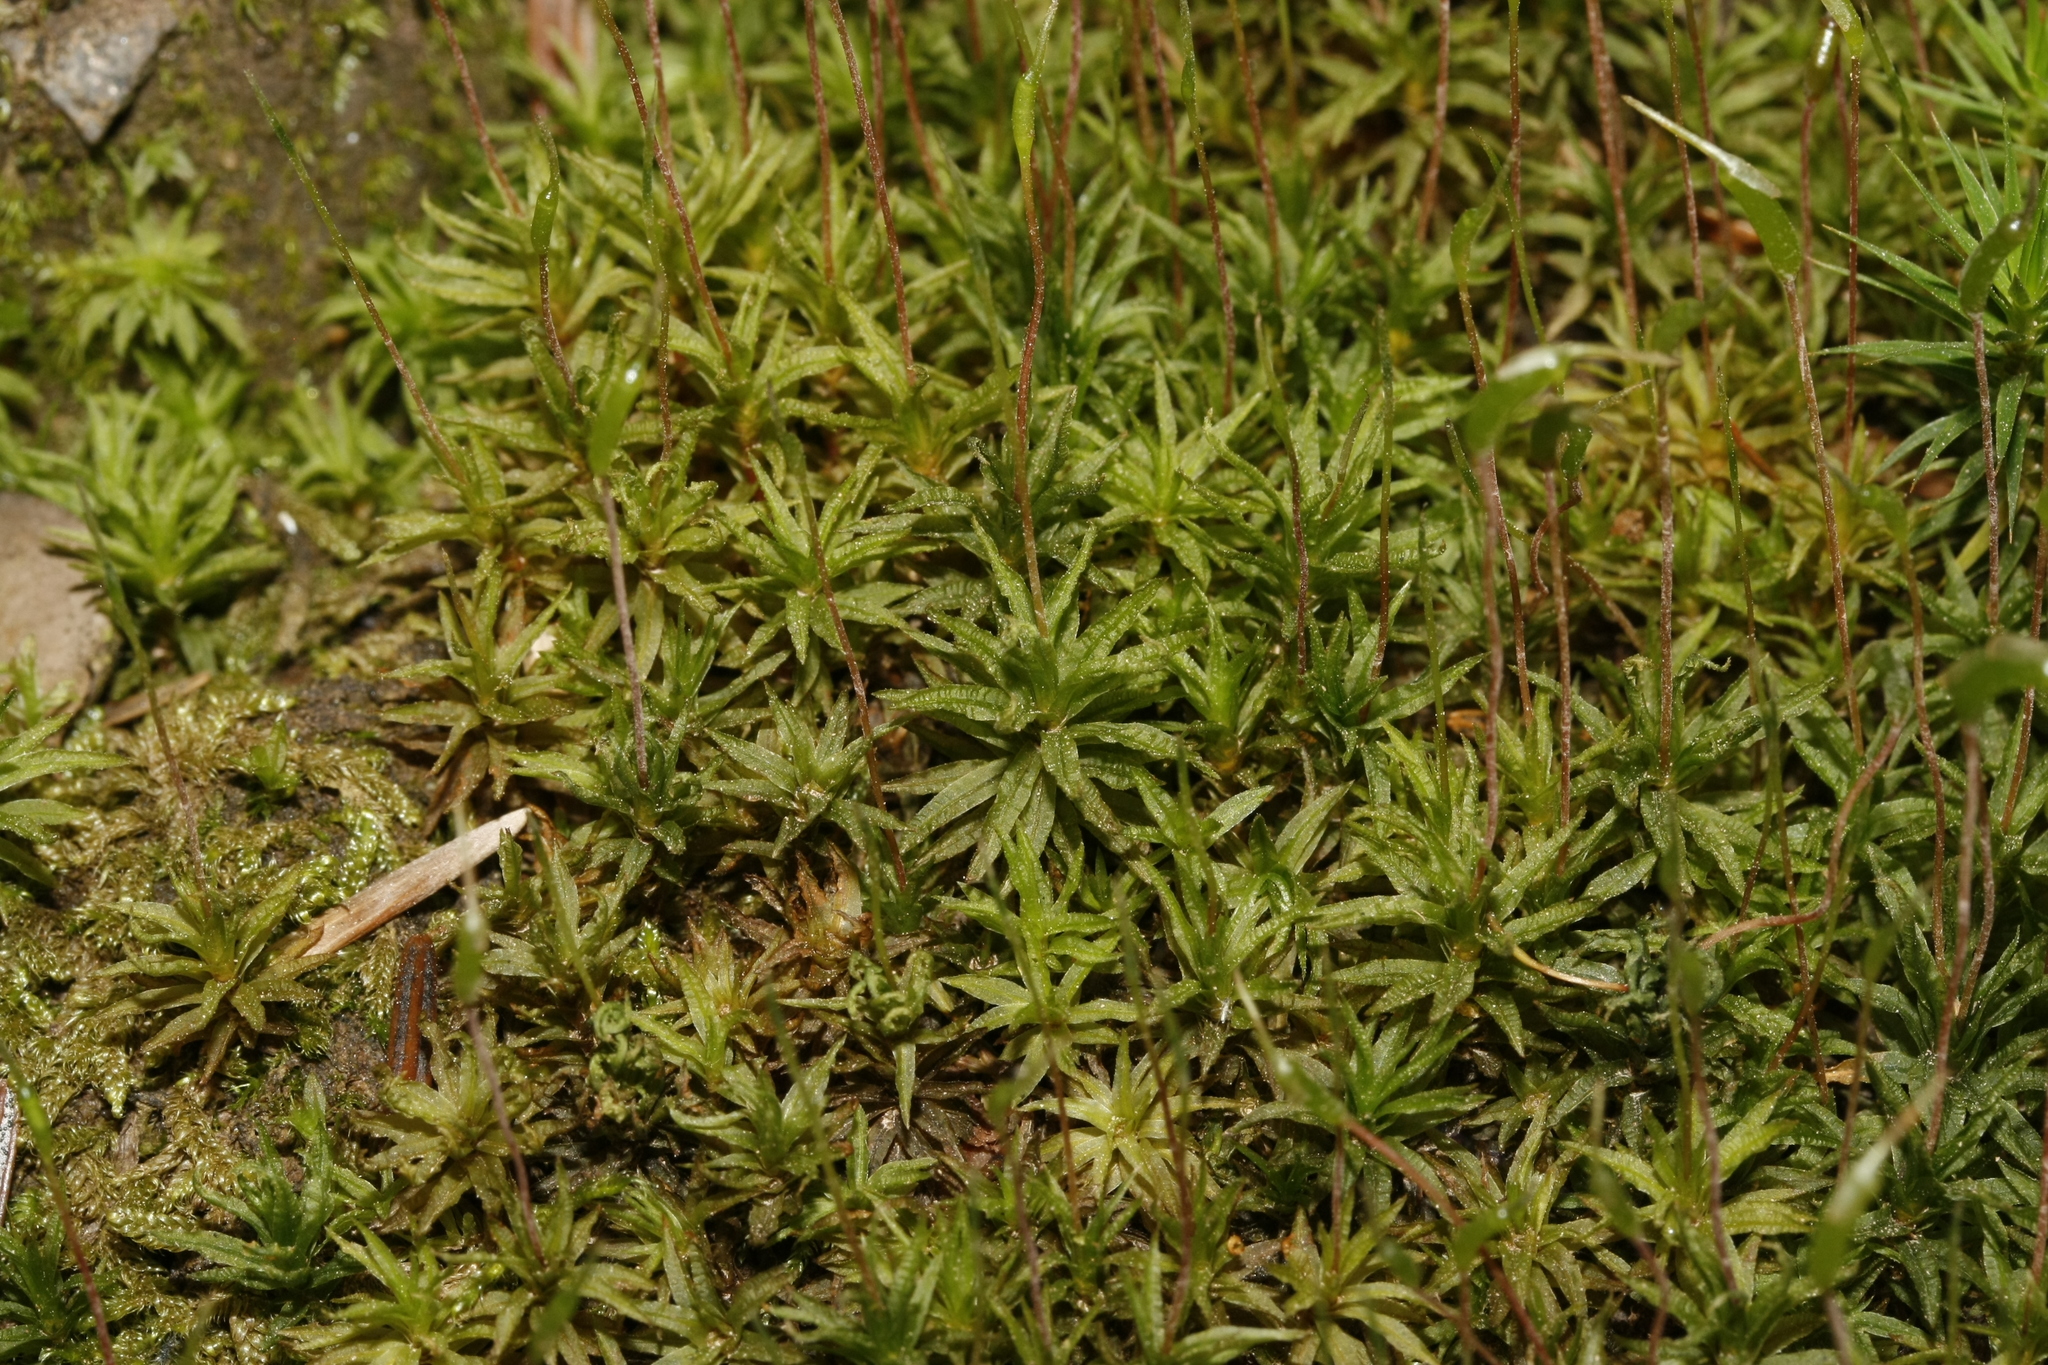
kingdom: Plantae
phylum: Bryophyta
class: Polytrichopsida
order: Polytrichales
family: Polytrichaceae
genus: Atrichum
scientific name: Atrichum undulatum
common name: Common smoothcap
